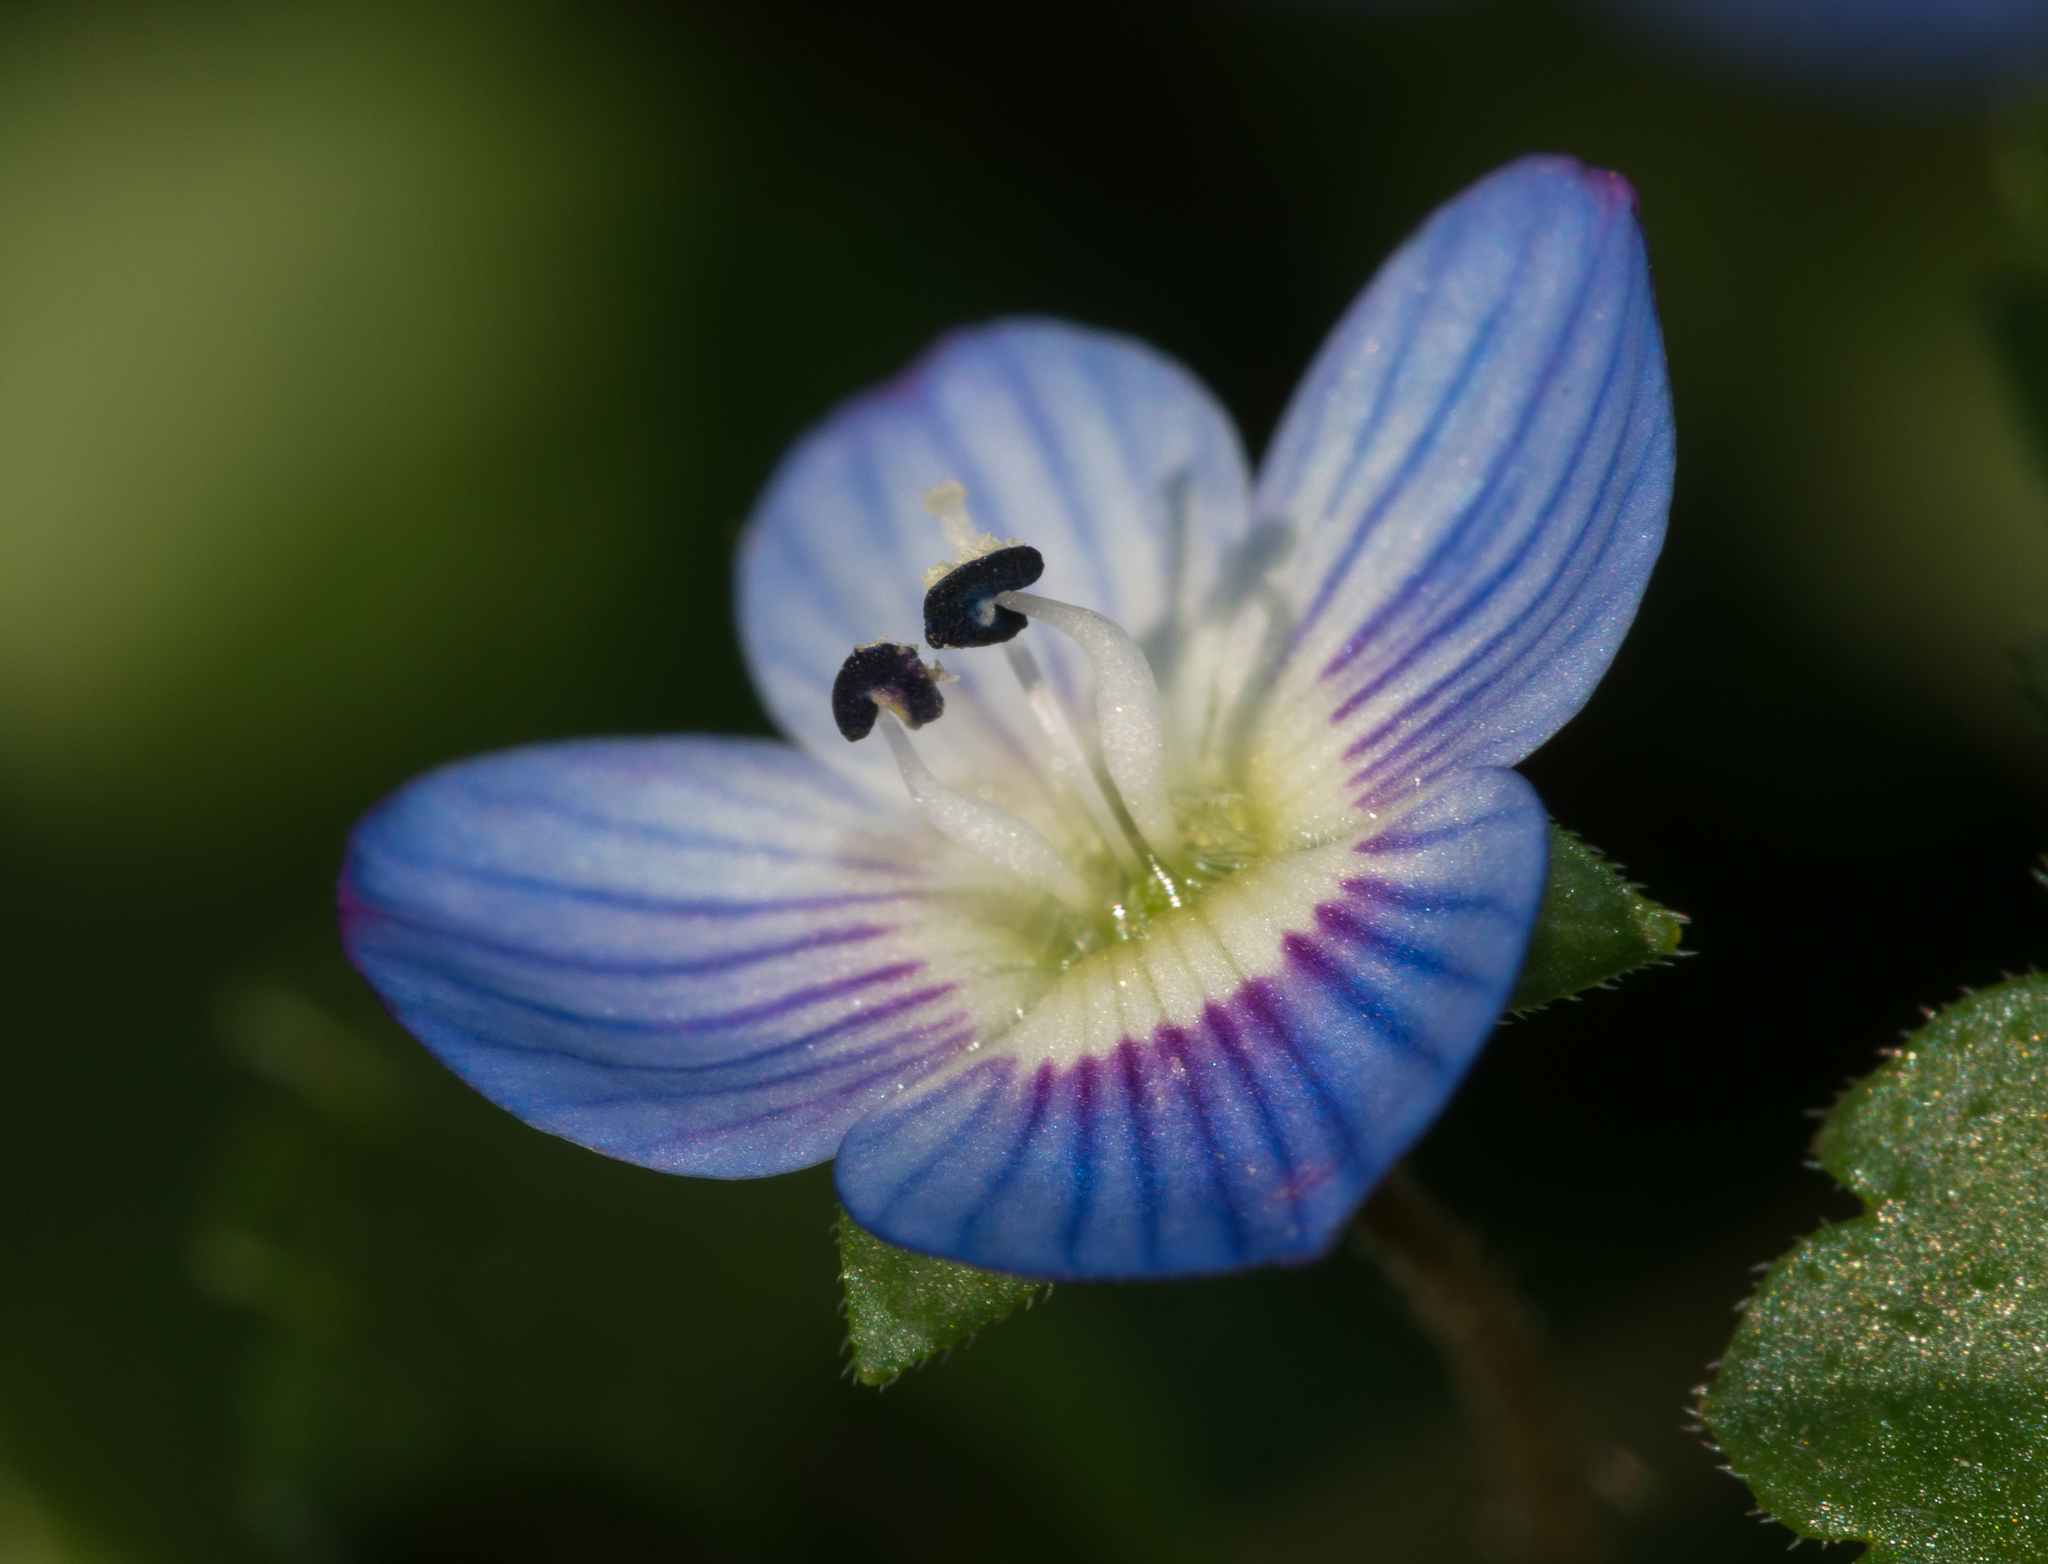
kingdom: Plantae
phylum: Tracheophyta
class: Magnoliopsida
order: Lamiales
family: Plantaginaceae
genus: Veronica
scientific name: Veronica persica
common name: Common field-speedwell
